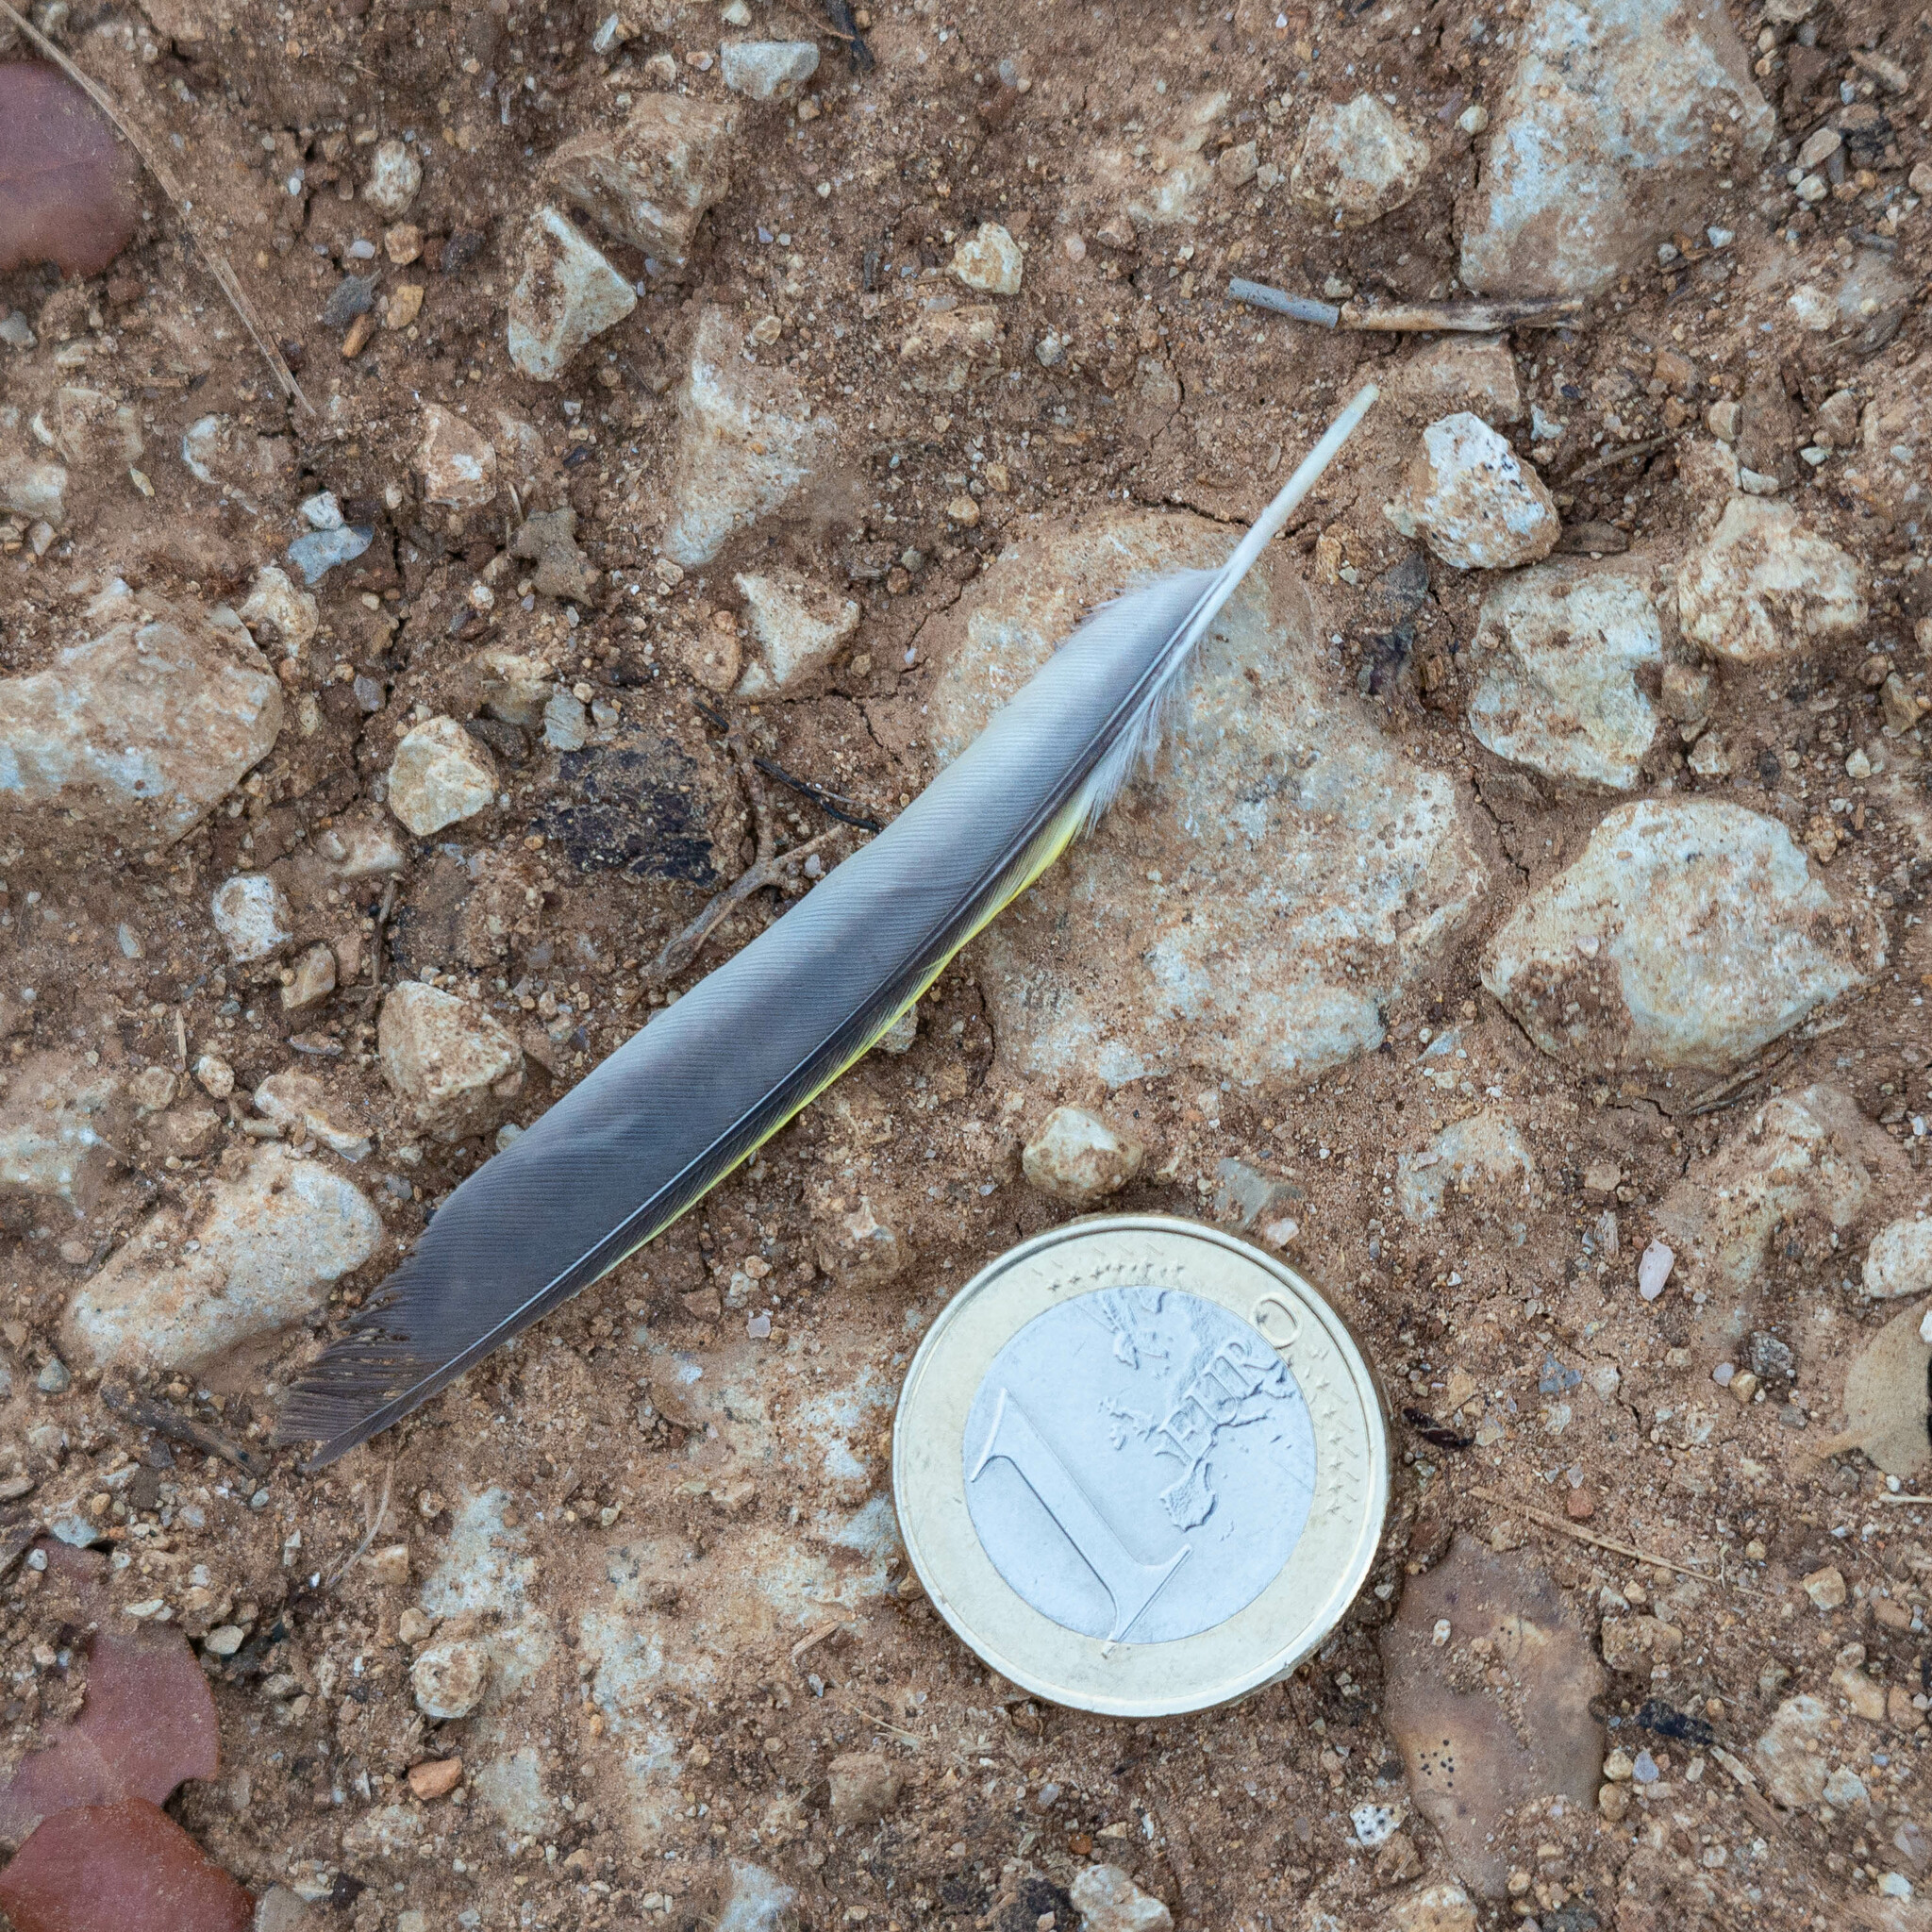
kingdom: Plantae
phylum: Tracheophyta
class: Liliopsida
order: Poales
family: Poaceae
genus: Chloris
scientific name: Chloris chloris
